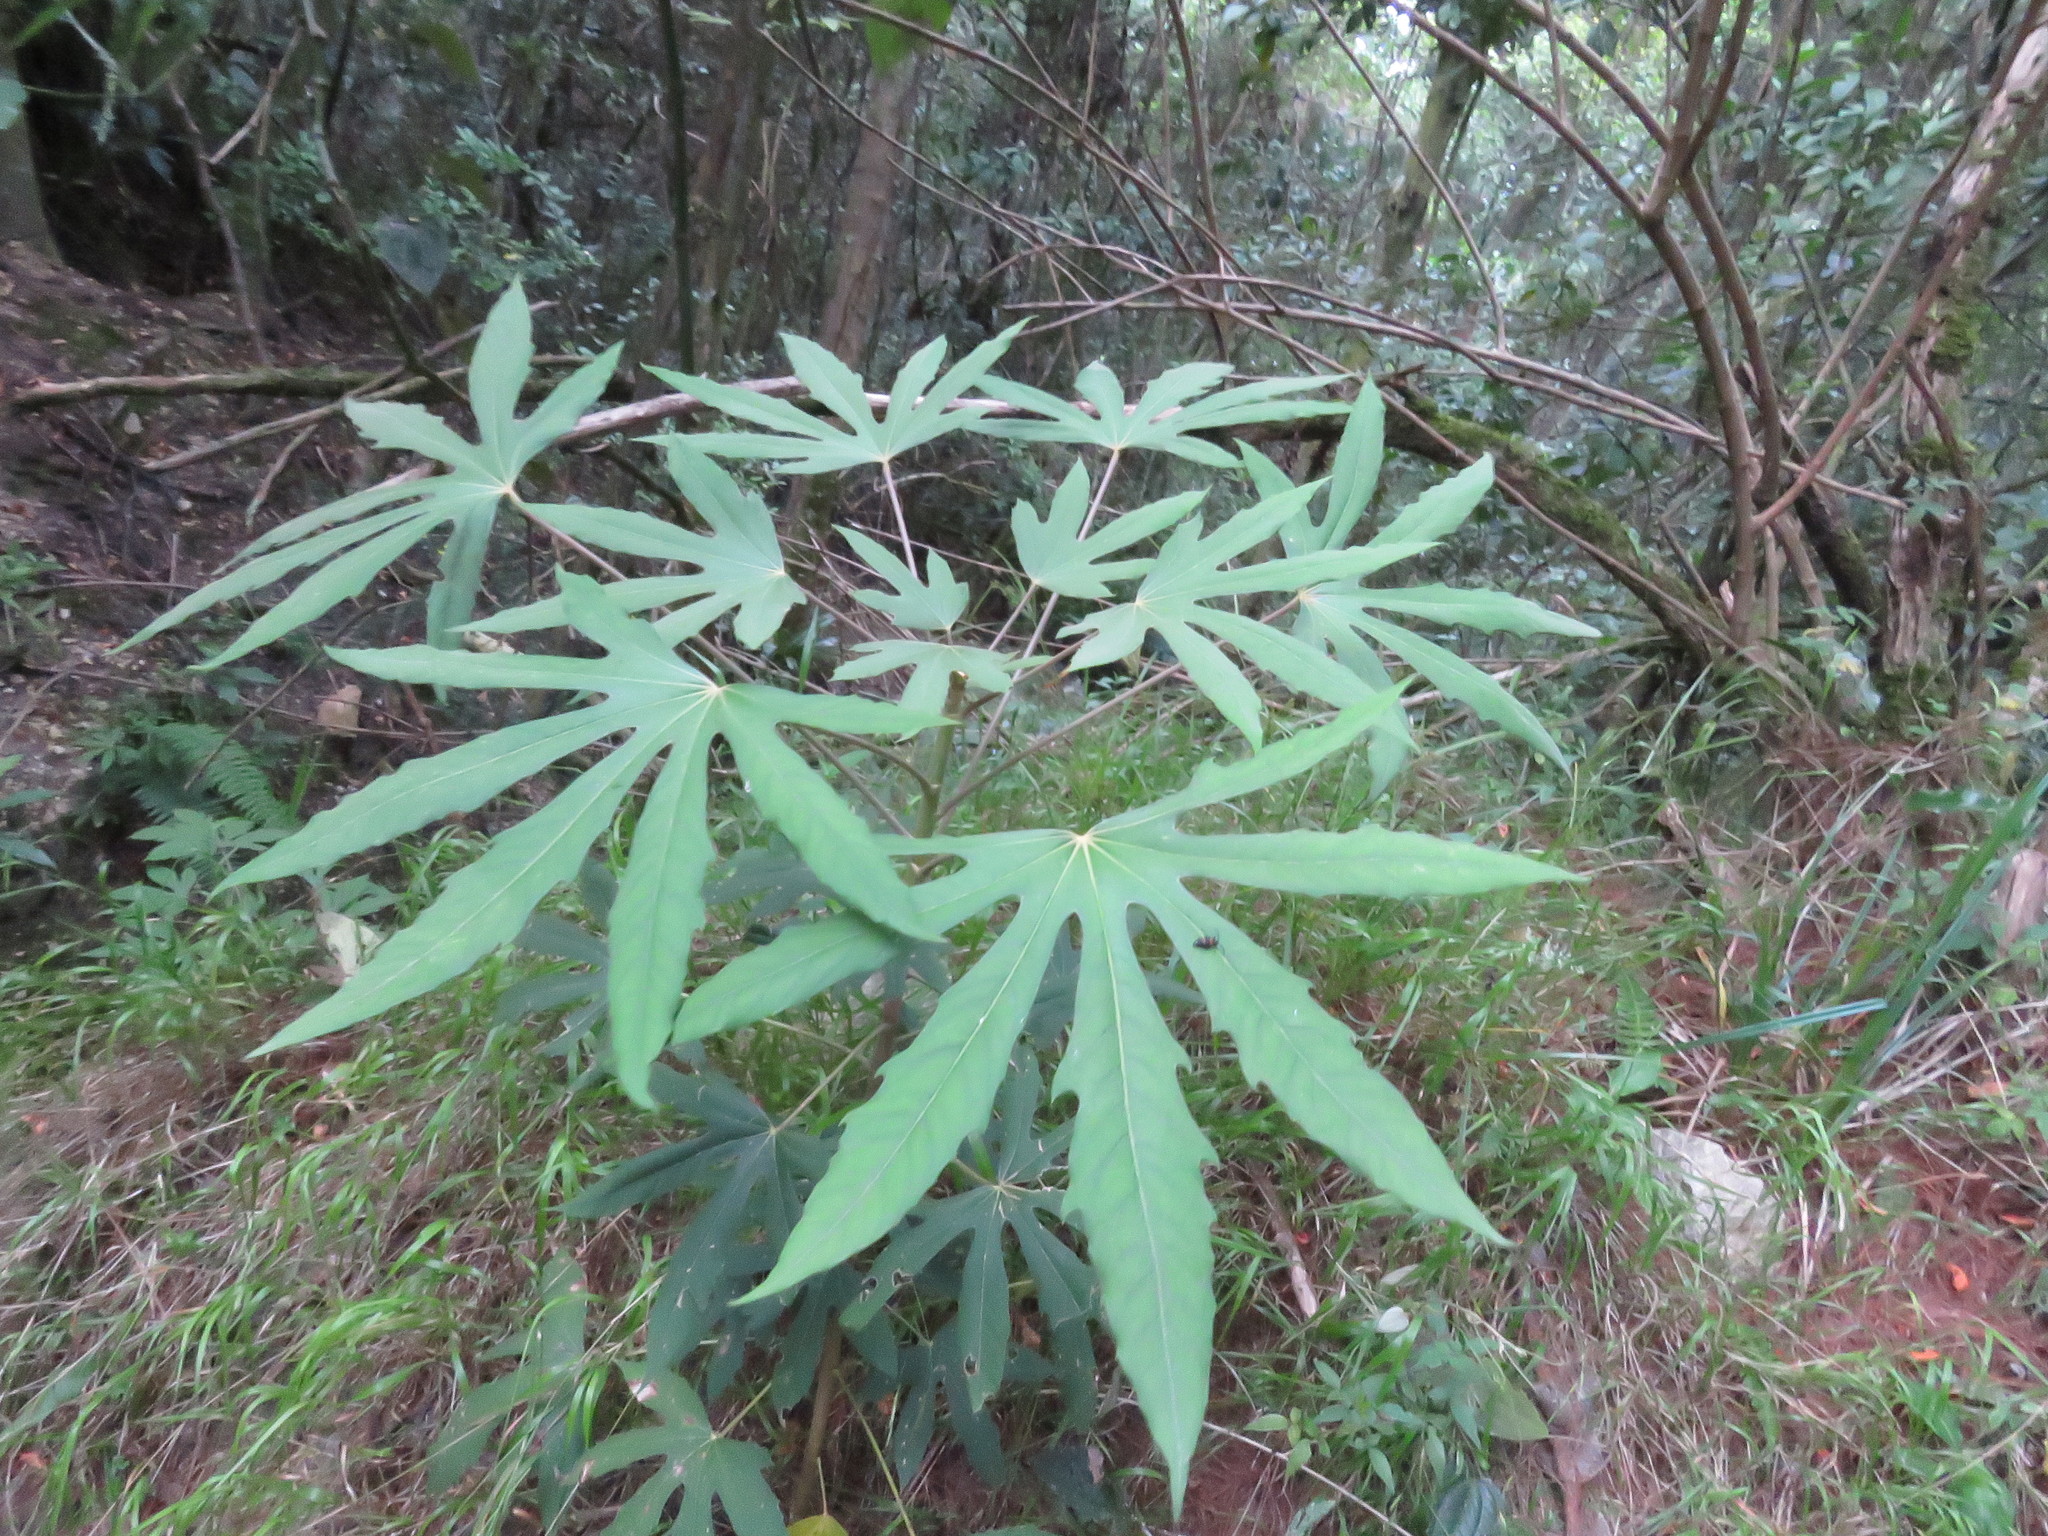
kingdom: Plantae
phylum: Tracheophyta
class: Magnoliopsida
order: Apiales
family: Araliaceae
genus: Oreopanax
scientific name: Oreopanax incisus
